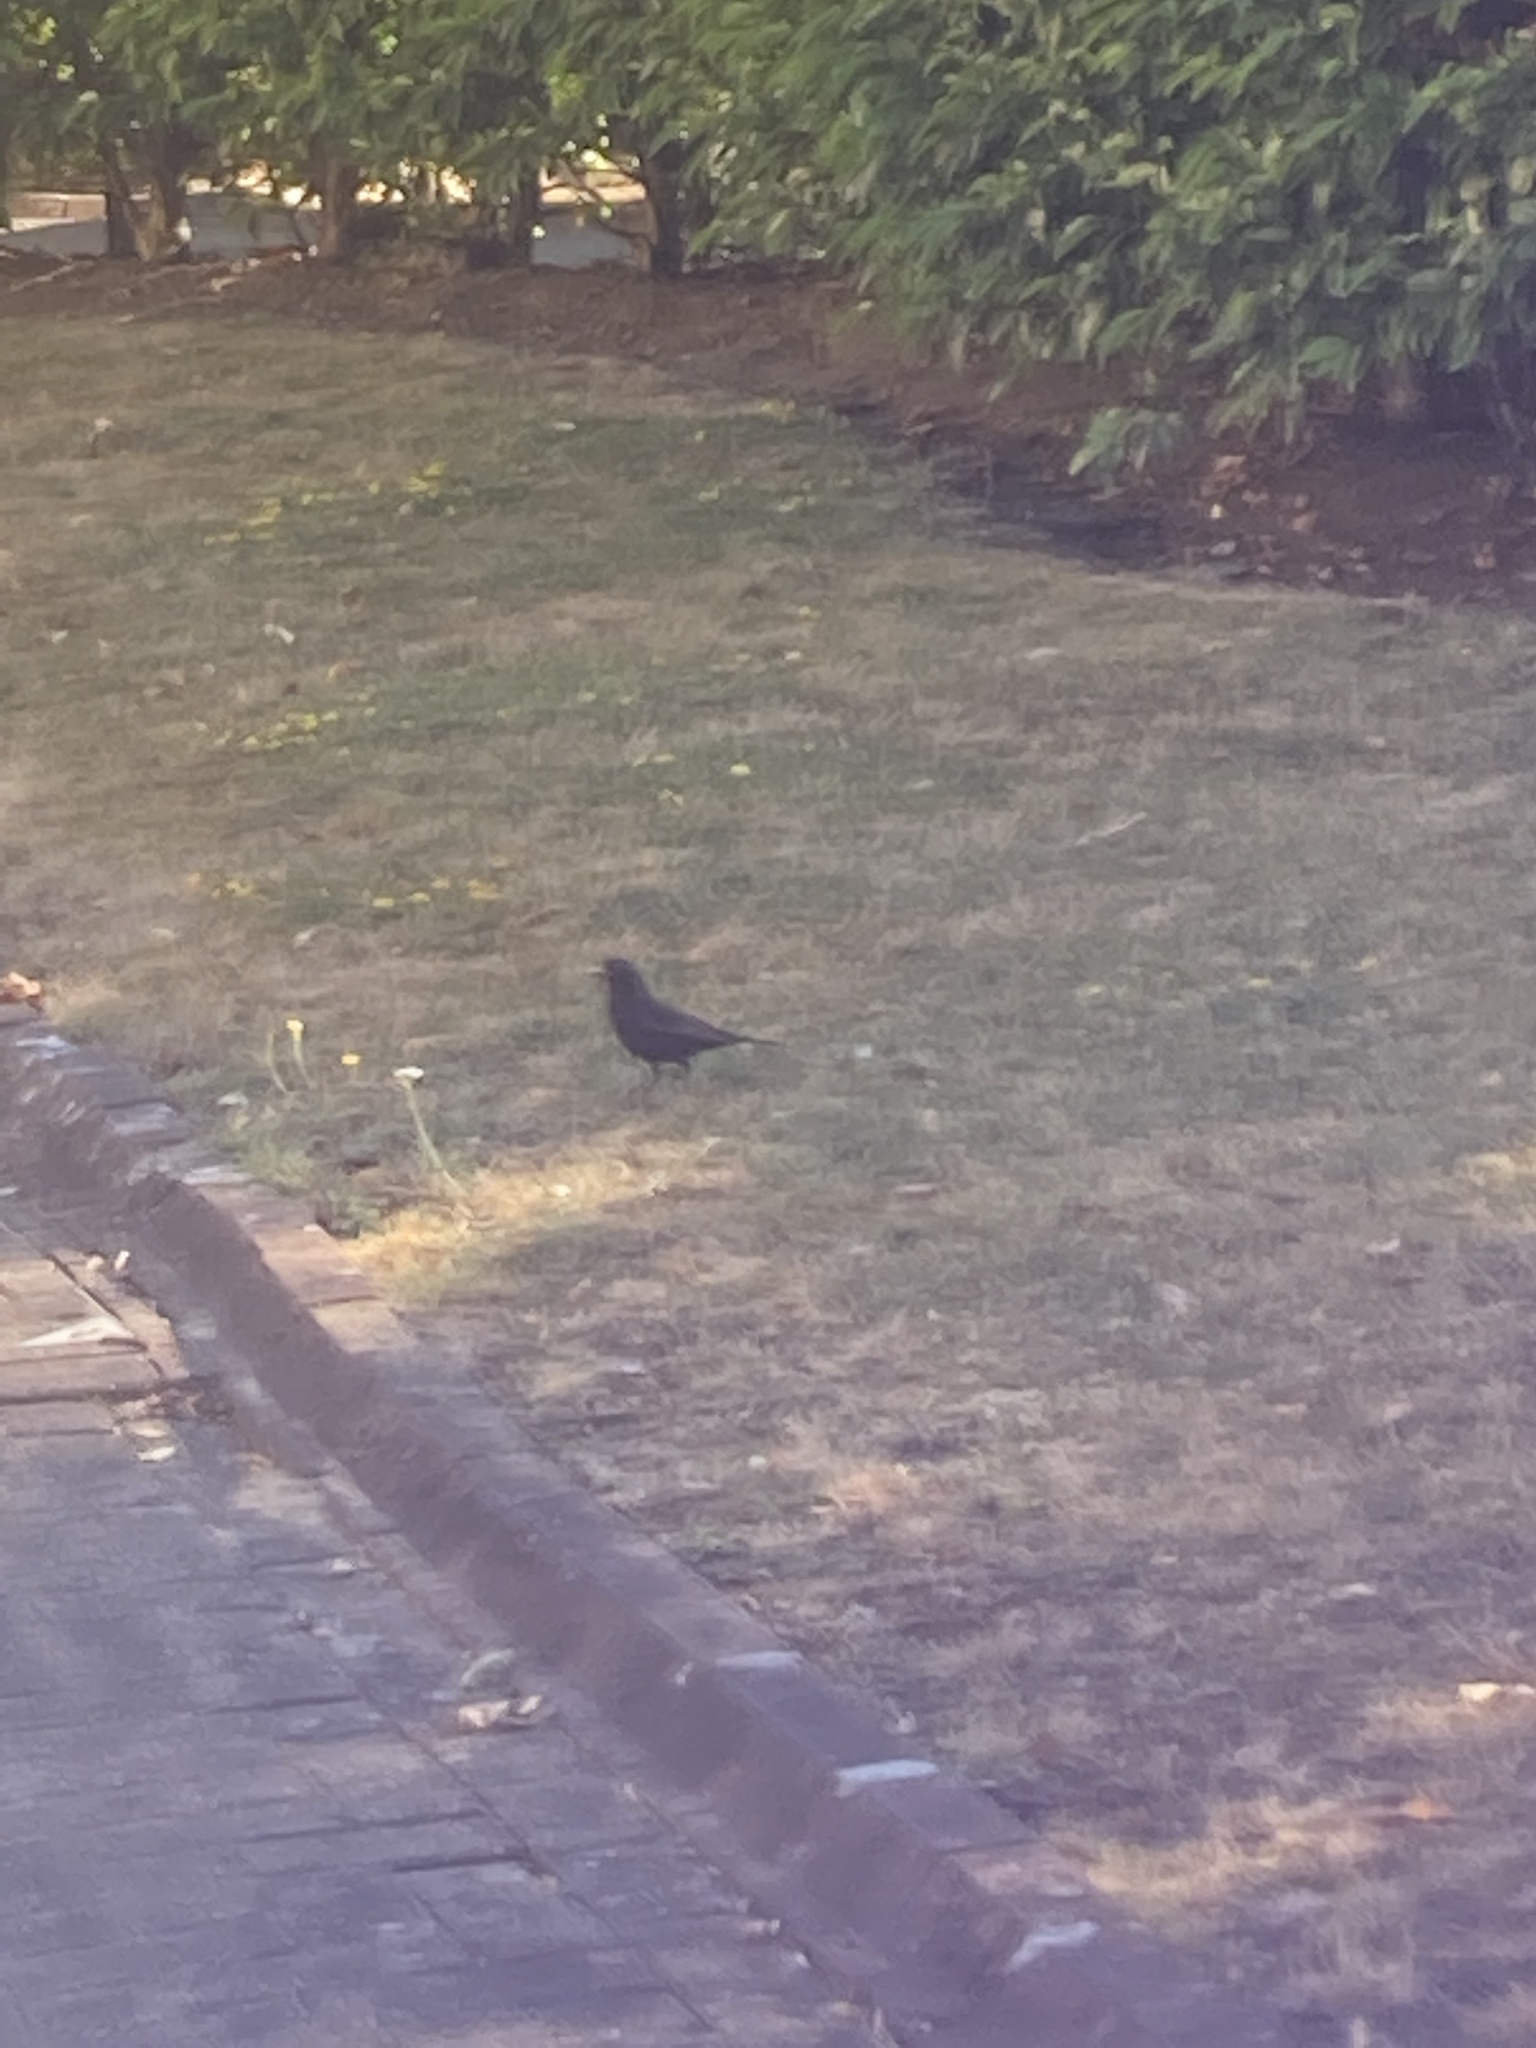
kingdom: Animalia
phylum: Chordata
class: Aves
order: Passeriformes
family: Turdidae
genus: Turdus
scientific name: Turdus merula
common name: Common blackbird
